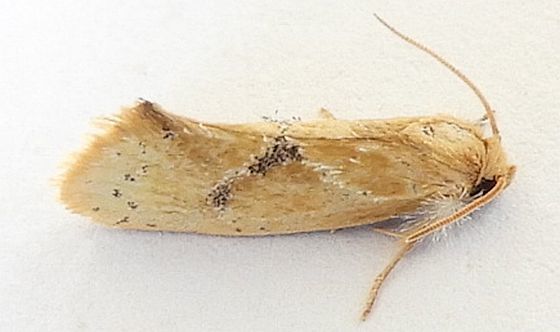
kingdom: Animalia
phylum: Arthropoda
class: Insecta
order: Lepidoptera
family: Tineidae
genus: Acrolophus
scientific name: Acrolophus laticapitana
